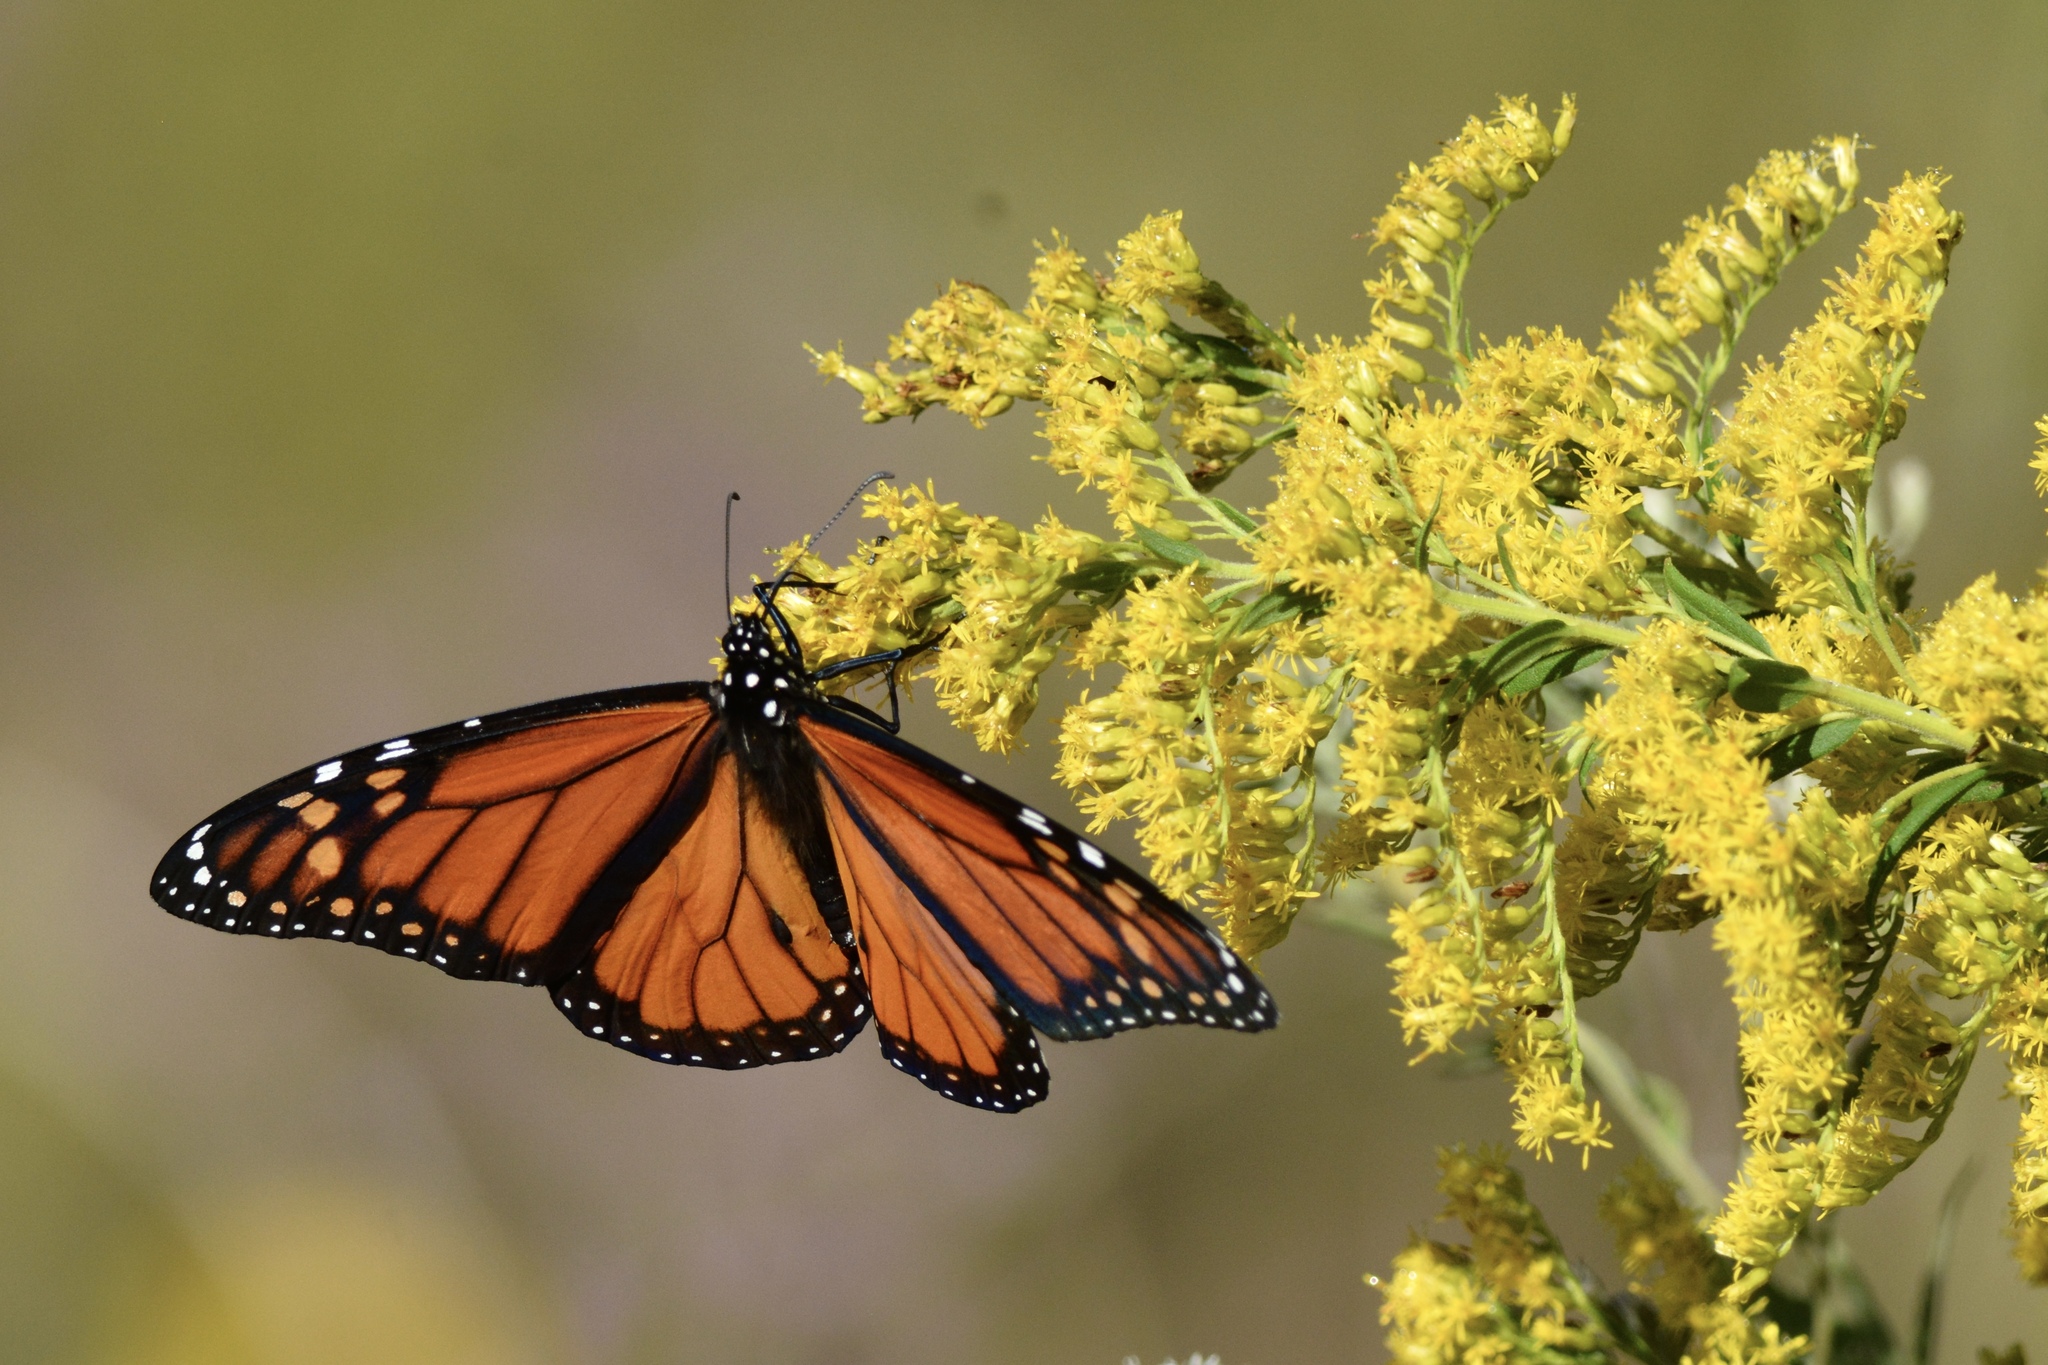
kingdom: Animalia
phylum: Arthropoda
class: Insecta
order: Lepidoptera
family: Nymphalidae
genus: Danaus
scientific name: Danaus plexippus
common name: Monarch
